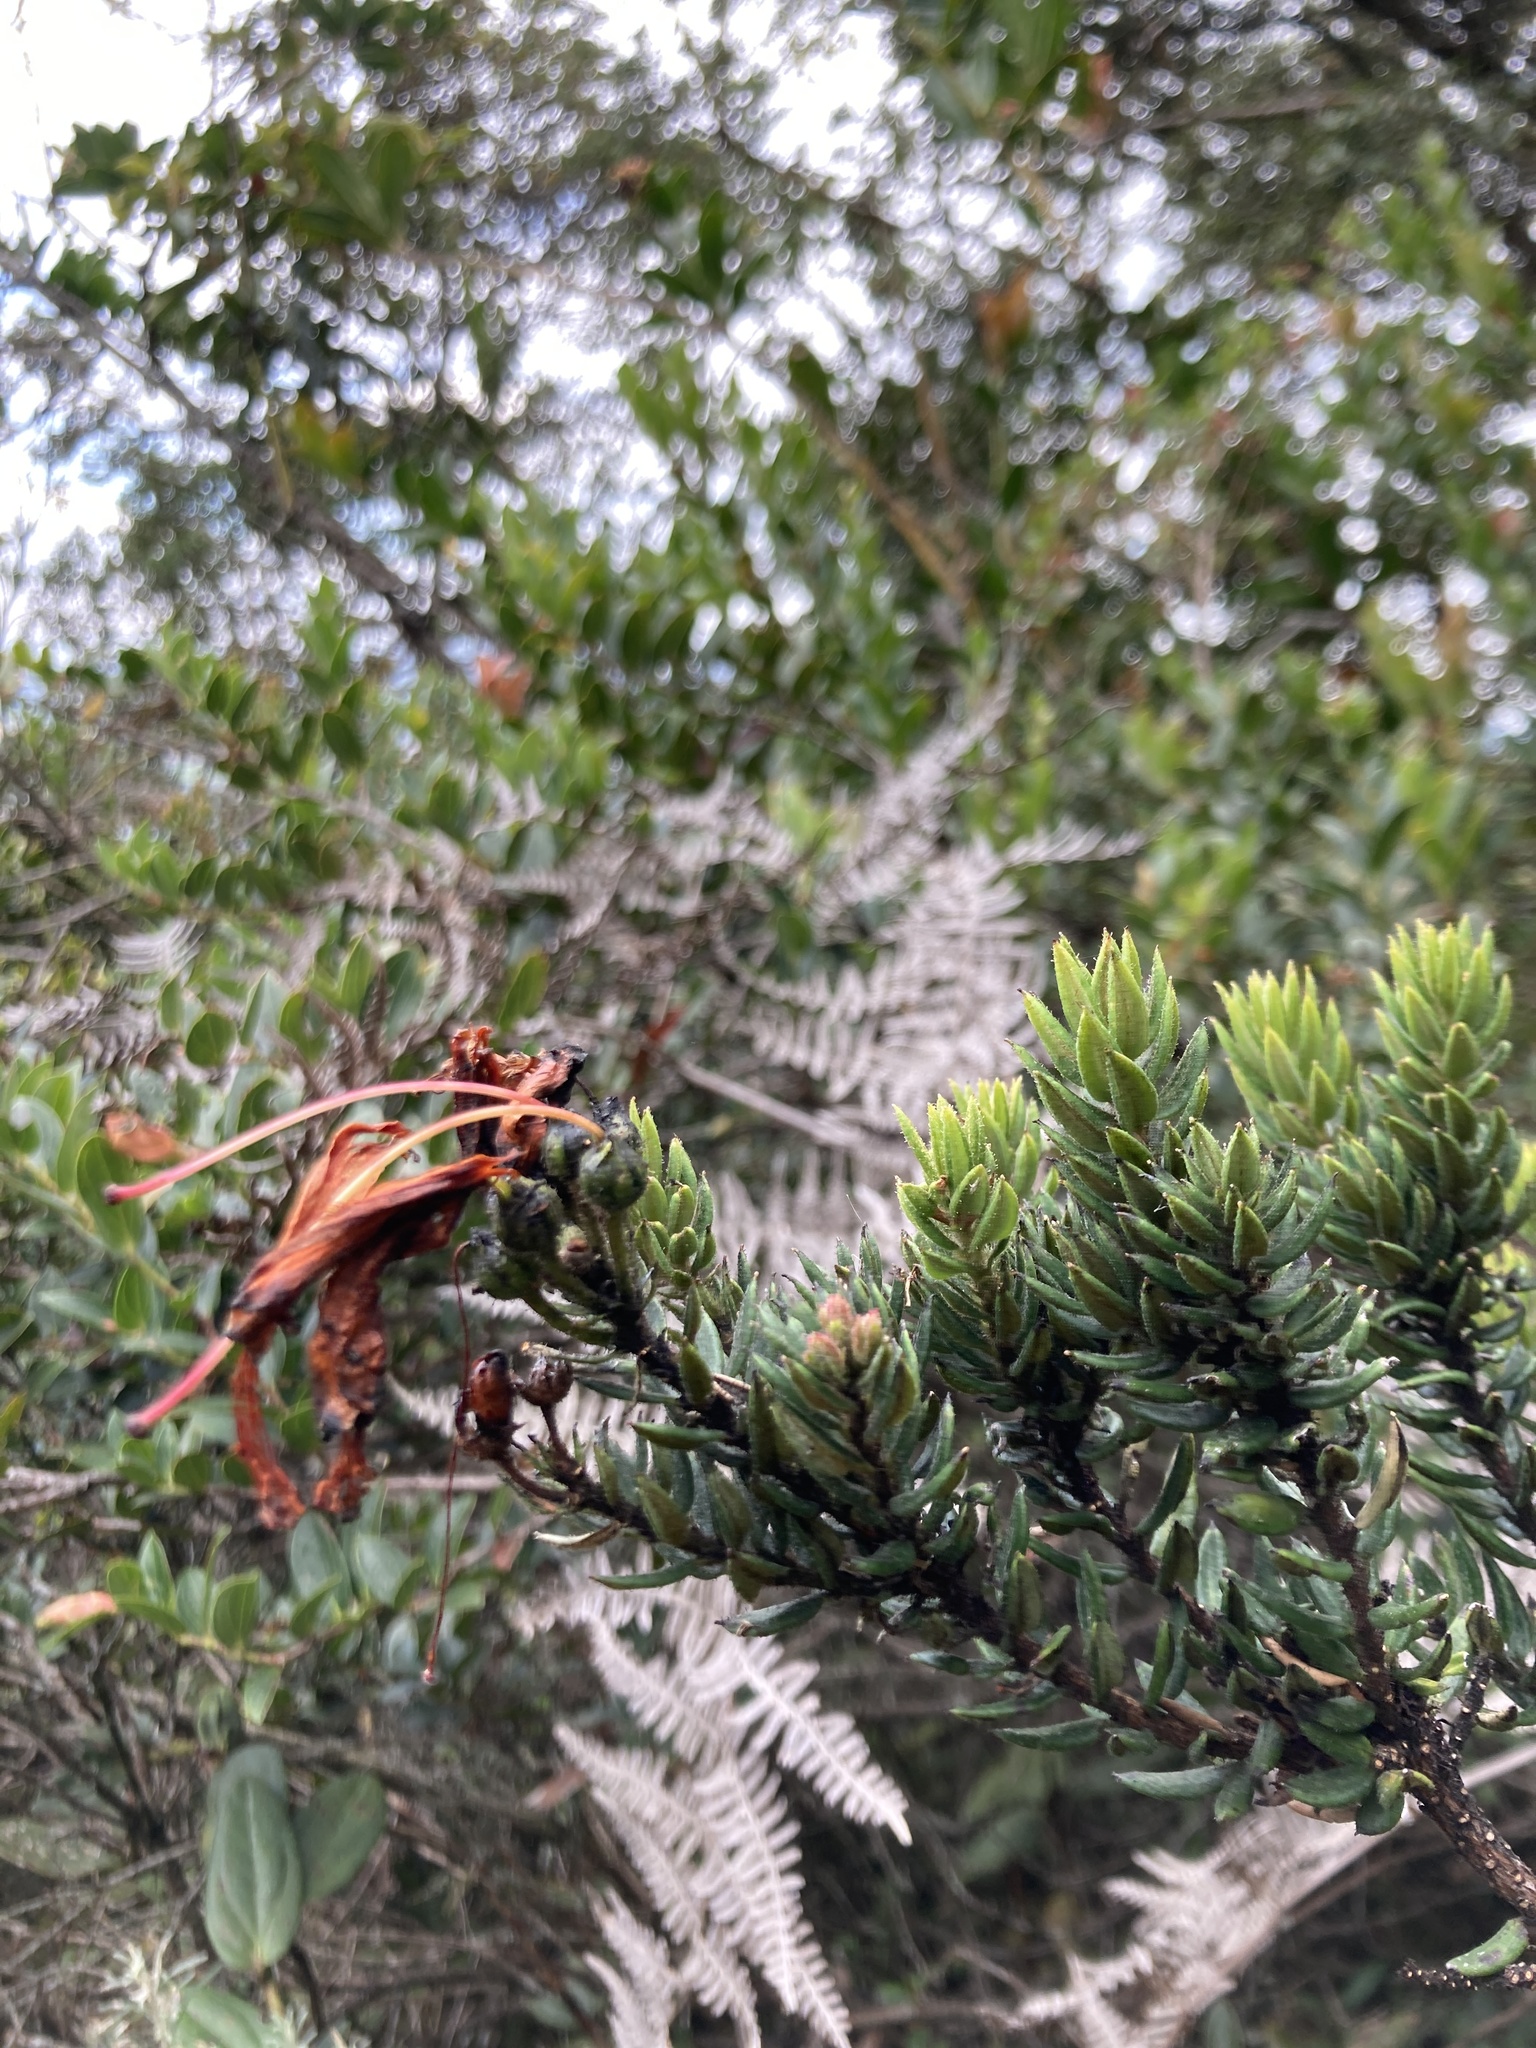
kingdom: Plantae
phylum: Tracheophyta
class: Magnoliopsida
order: Ericales
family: Ericaceae
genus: Bejaria
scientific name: Bejaria resinosa
